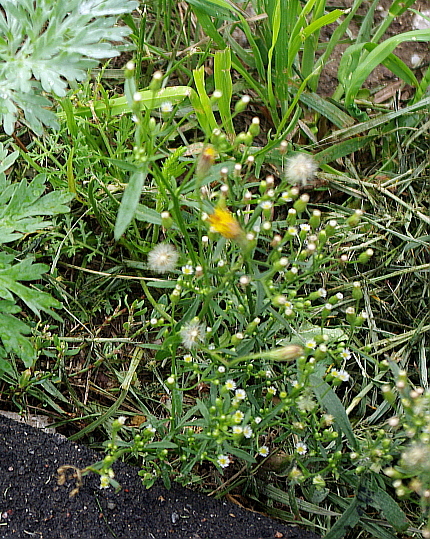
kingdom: Plantae
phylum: Tracheophyta
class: Magnoliopsida
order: Asterales
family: Asteraceae
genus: Erigeron
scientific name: Erigeron canadensis
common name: Canadian fleabane
